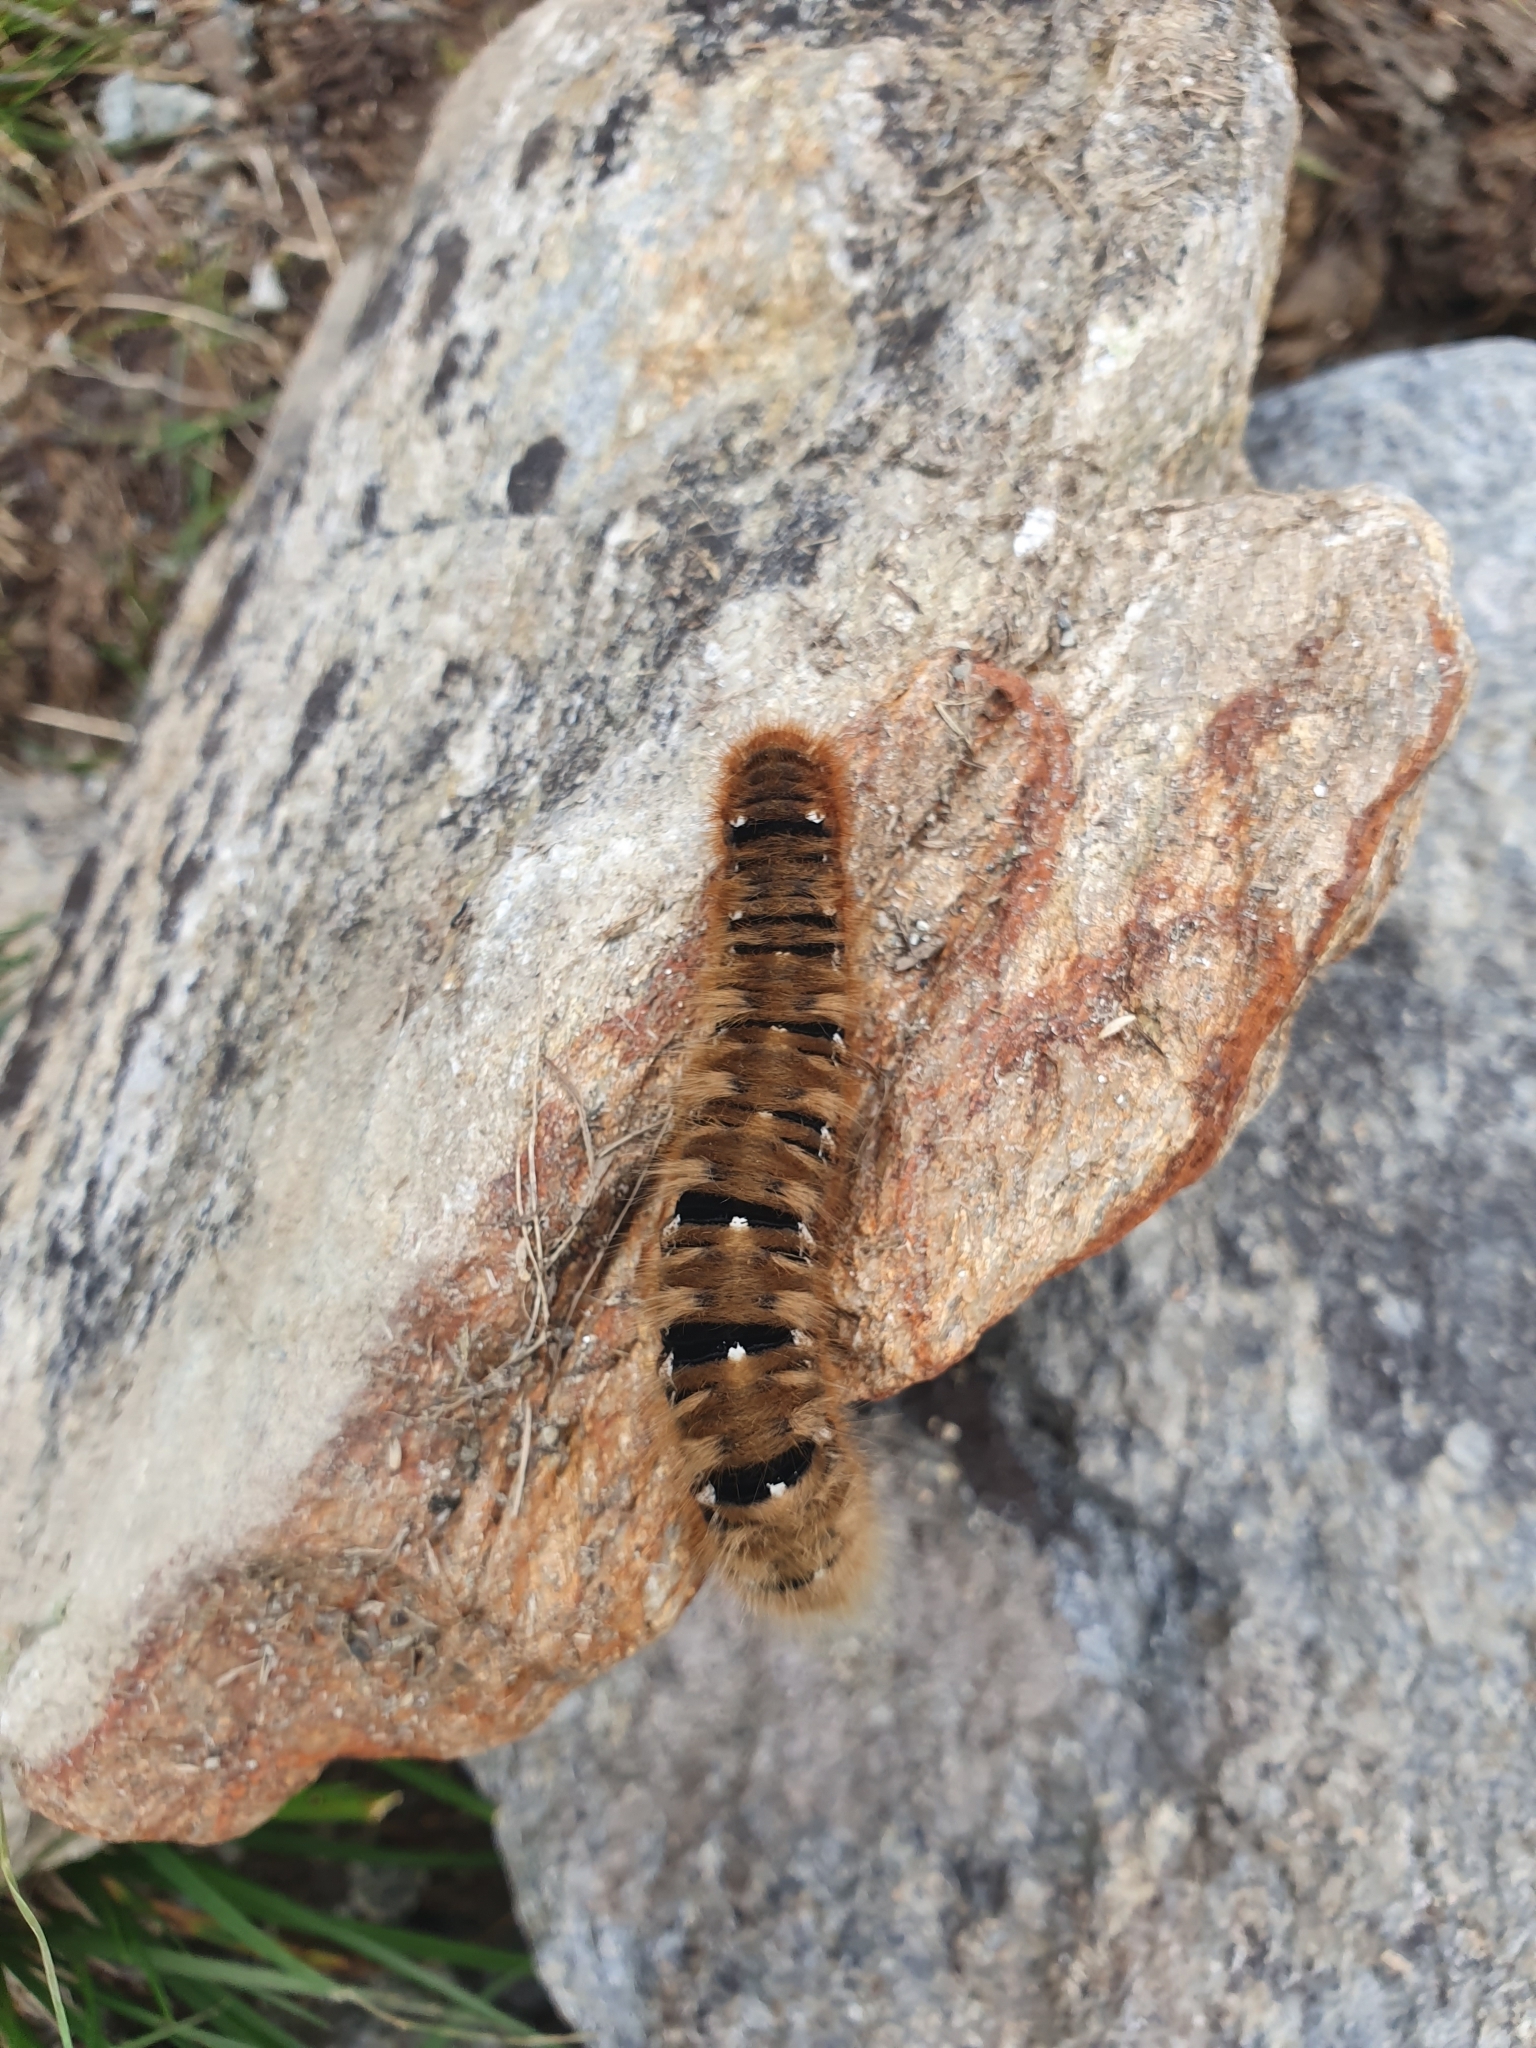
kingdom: Animalia
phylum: Arthropoda
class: Insecta
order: Lepidoptera
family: Lasiocampidae
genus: Lasiocampa
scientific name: Lasiocampa quercus
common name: Oak eggar
